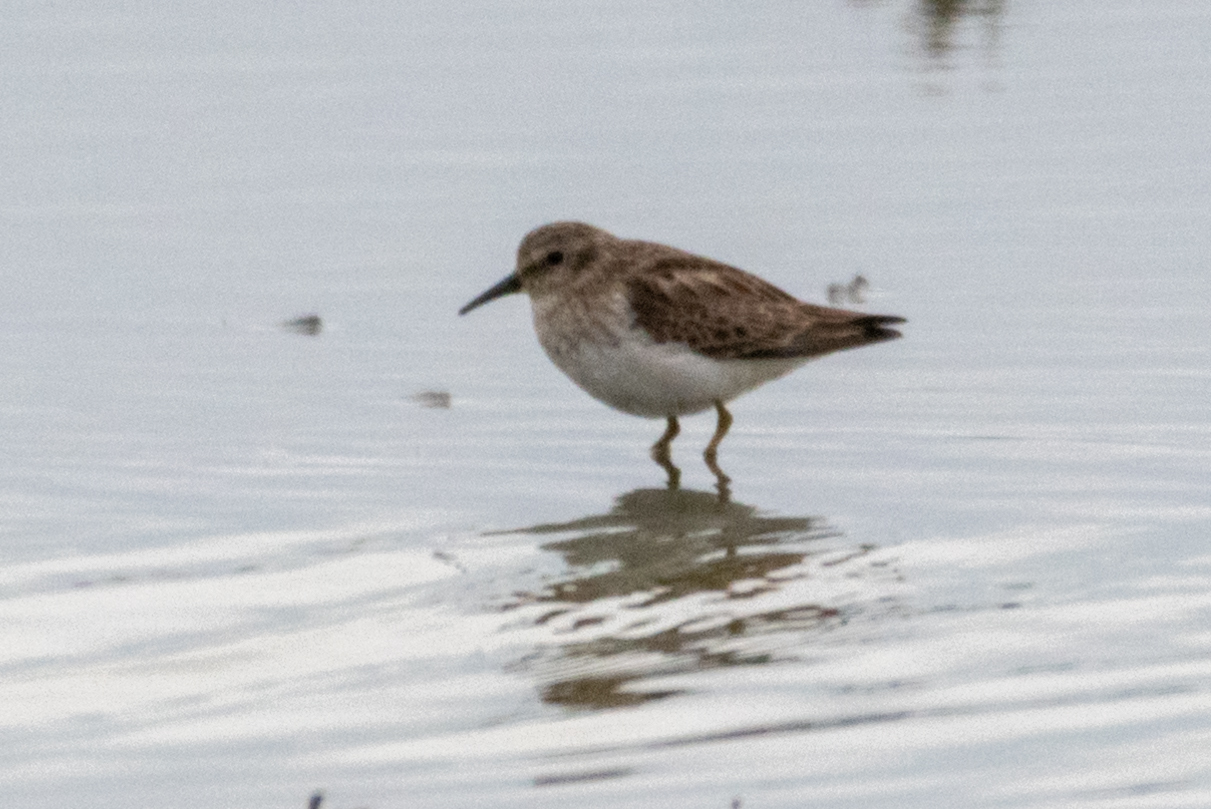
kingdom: Animalia
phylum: Chordata
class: Aves
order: Charadriiformes
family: Scolopacidae
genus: Calidris
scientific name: Calidris minutilla
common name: Least sandpiper
